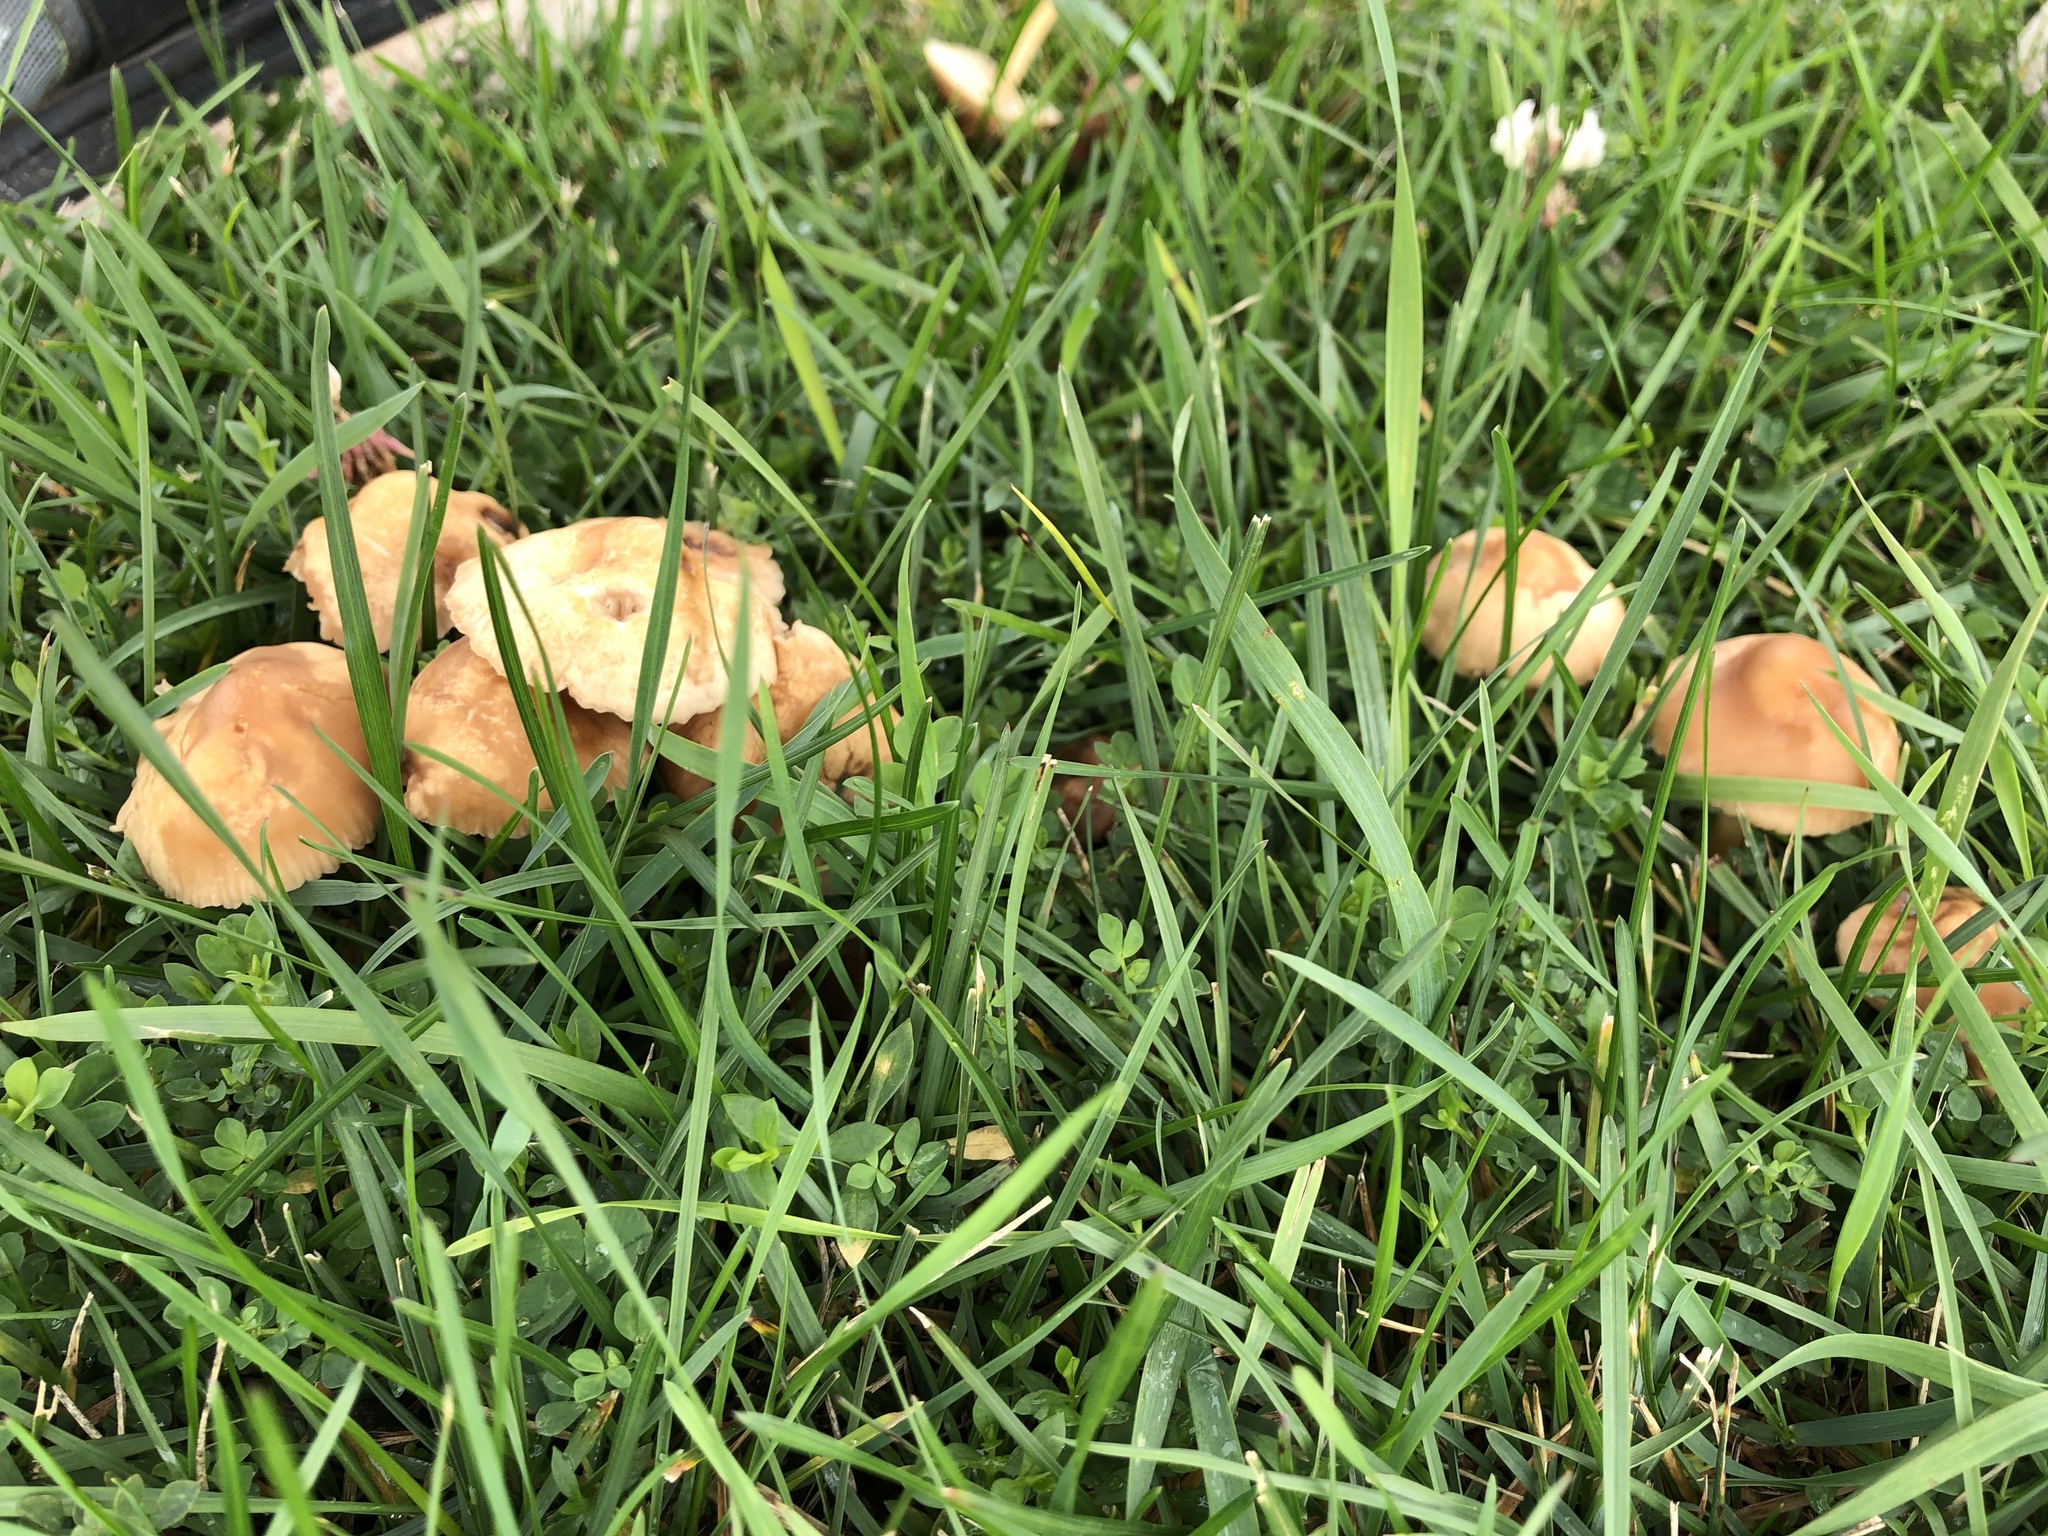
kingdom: Fungi
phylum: Basidiomycota
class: Agaricomycetes
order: Agaricales
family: Marasmiaceae
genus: Marasmius
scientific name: Marasmius oreades
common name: Fairy ring champignon
